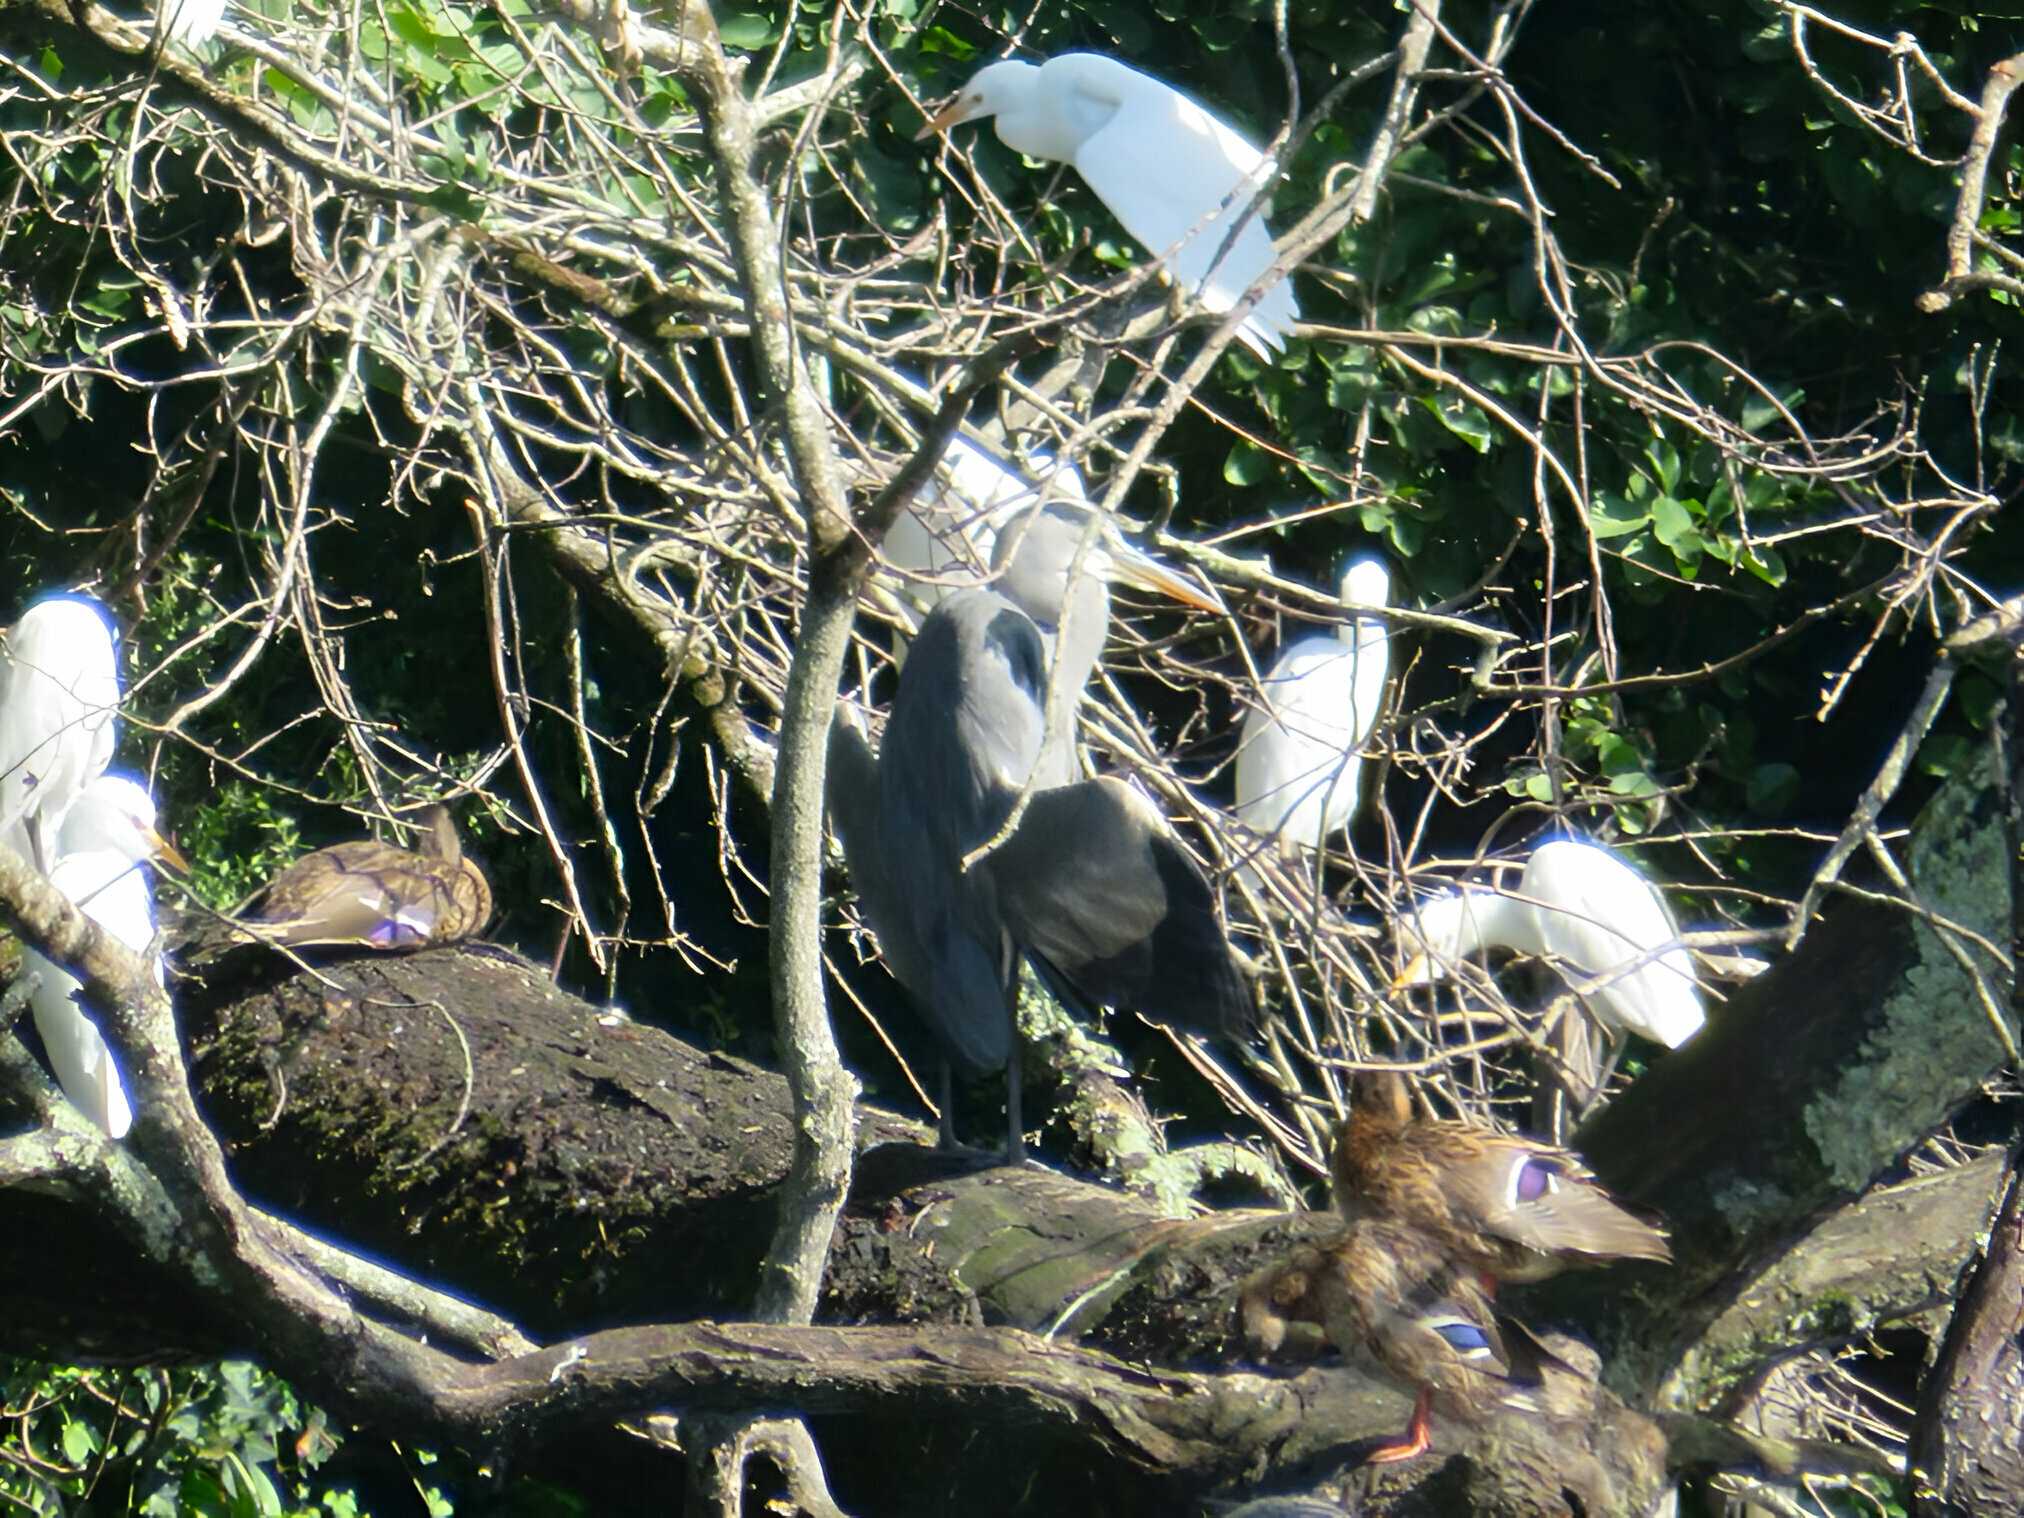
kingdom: Animalia
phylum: Chordata
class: Aves
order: Pelecaniformes
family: Ardeidae
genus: Ardea
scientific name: Ardea cinerea
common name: Grey heron
